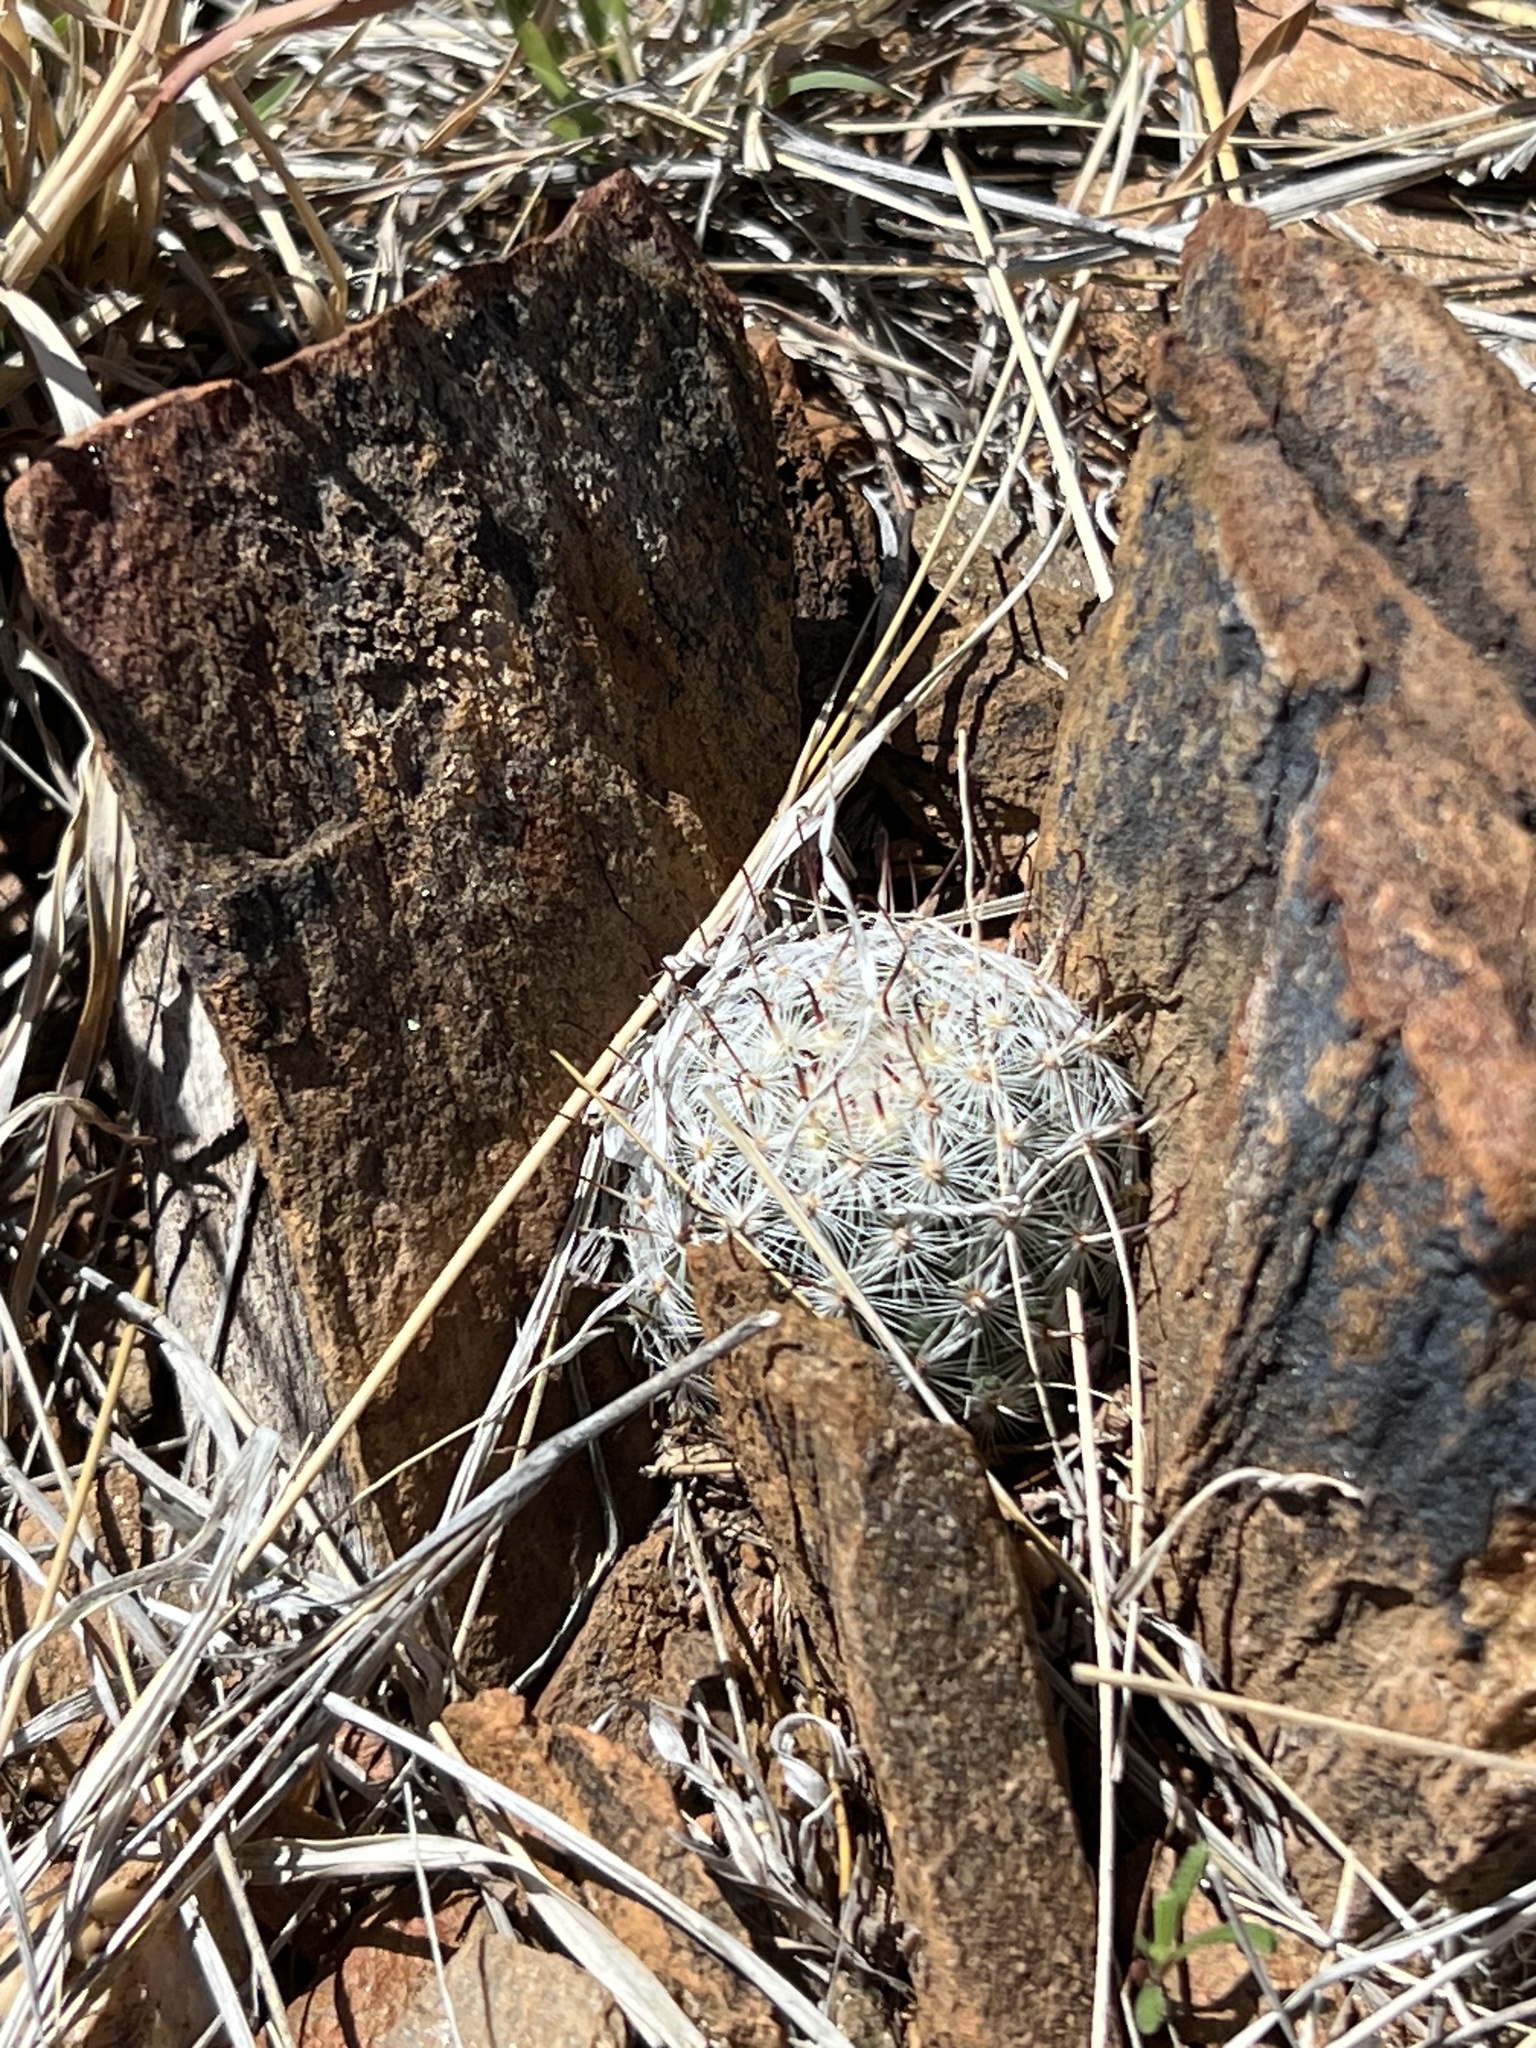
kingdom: Plantae
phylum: Tracheophyta
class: Magnoliopsida
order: Caryophyllales
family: Cactaceae
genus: Cochemiea
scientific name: Cochemiea grahamii
